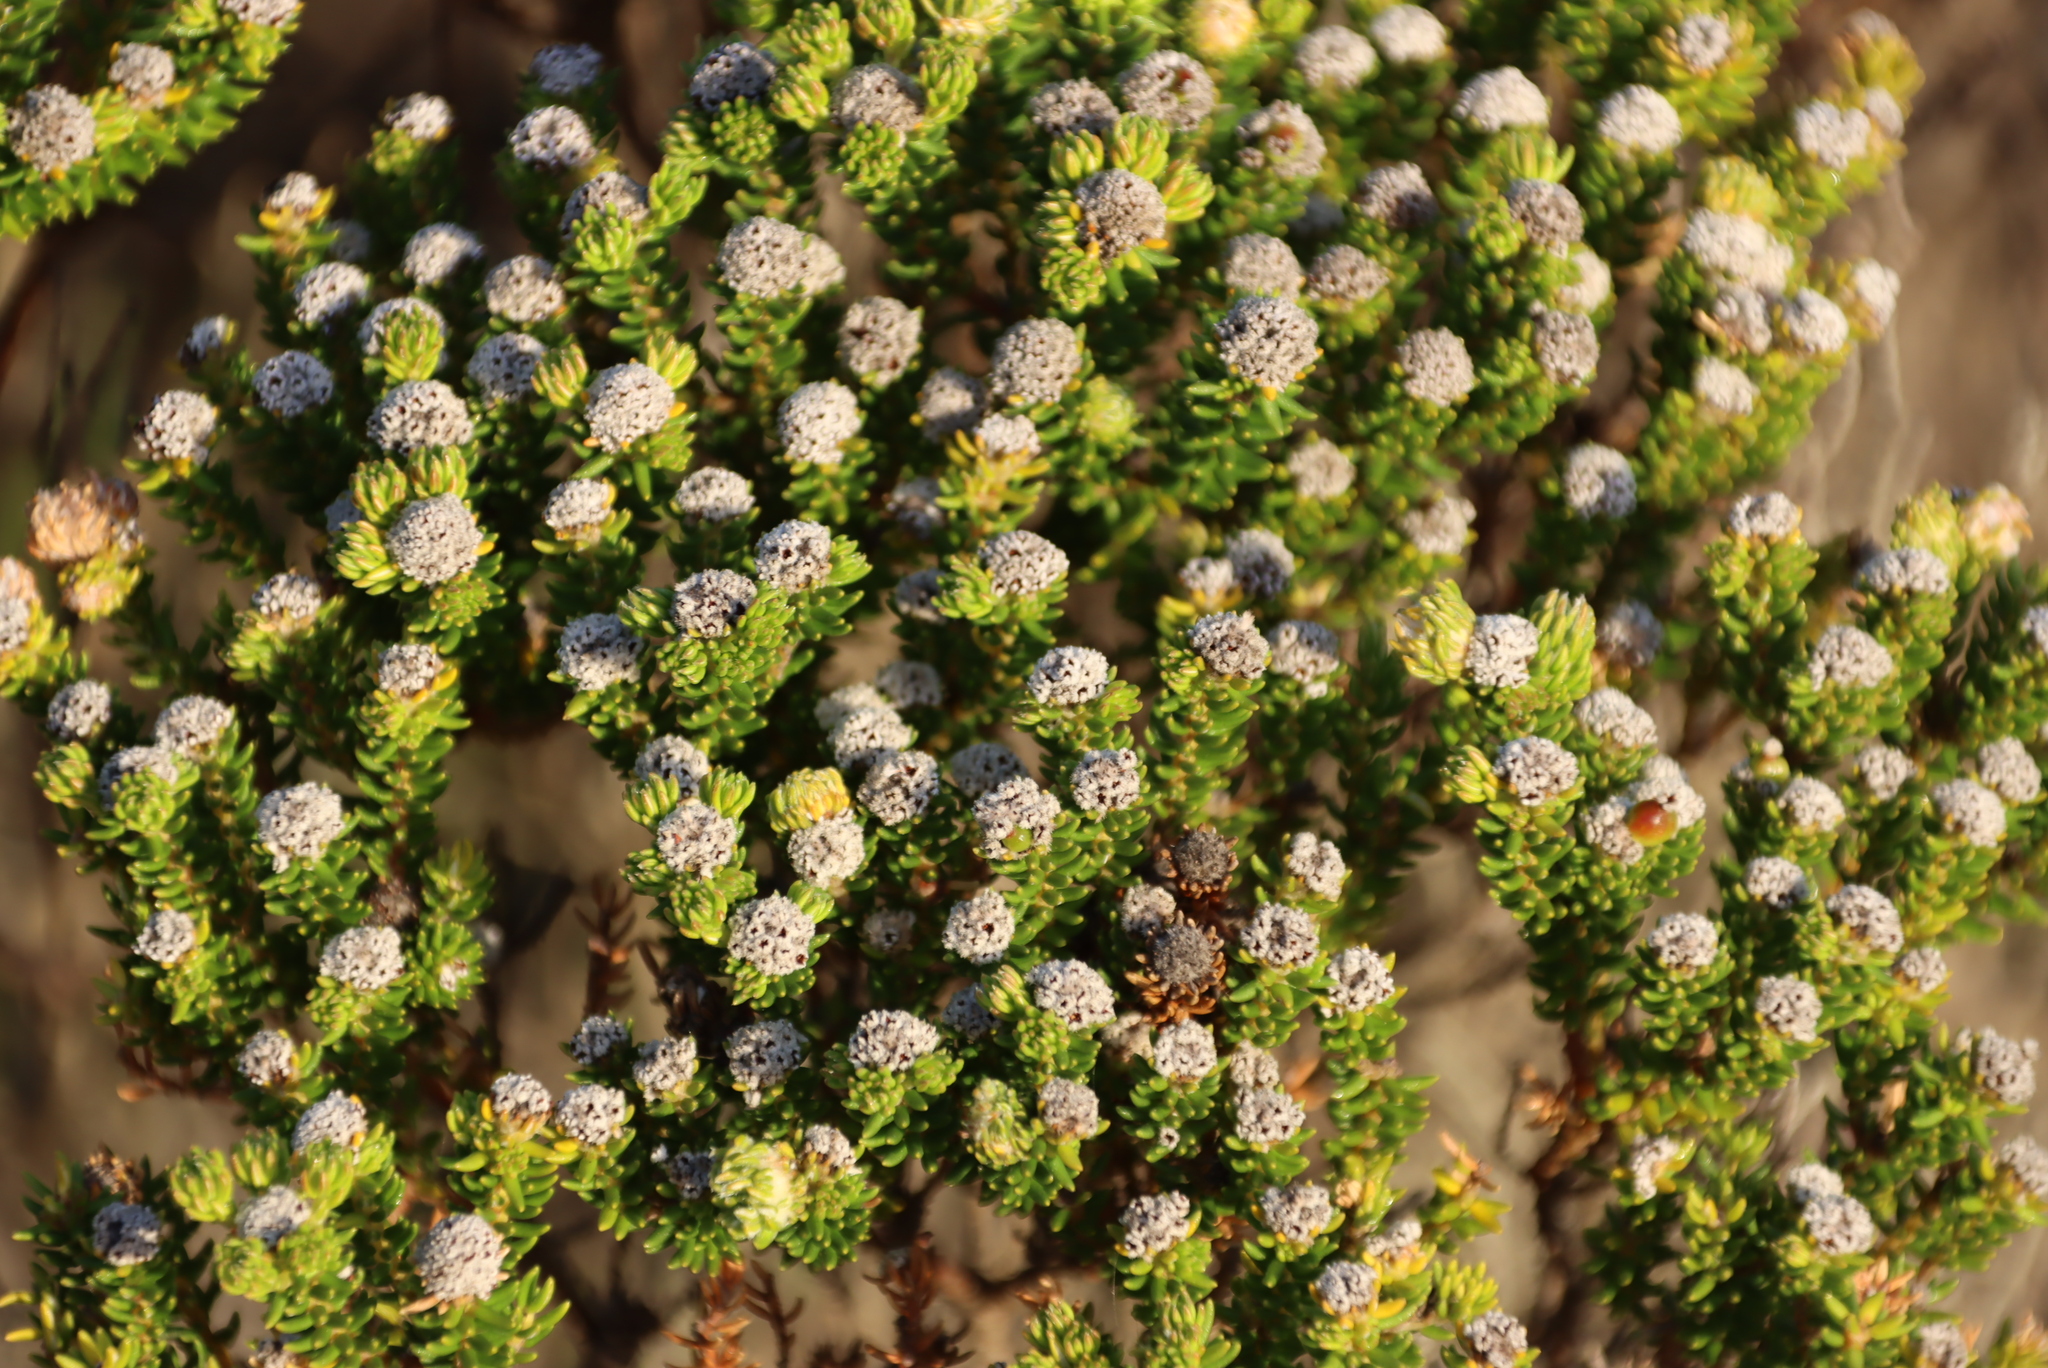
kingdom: Plantae
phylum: Tracheophyta
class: Magnoliopsida
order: Rosales
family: Rhamnaceae
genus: Phylica
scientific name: Phylica ericoides
